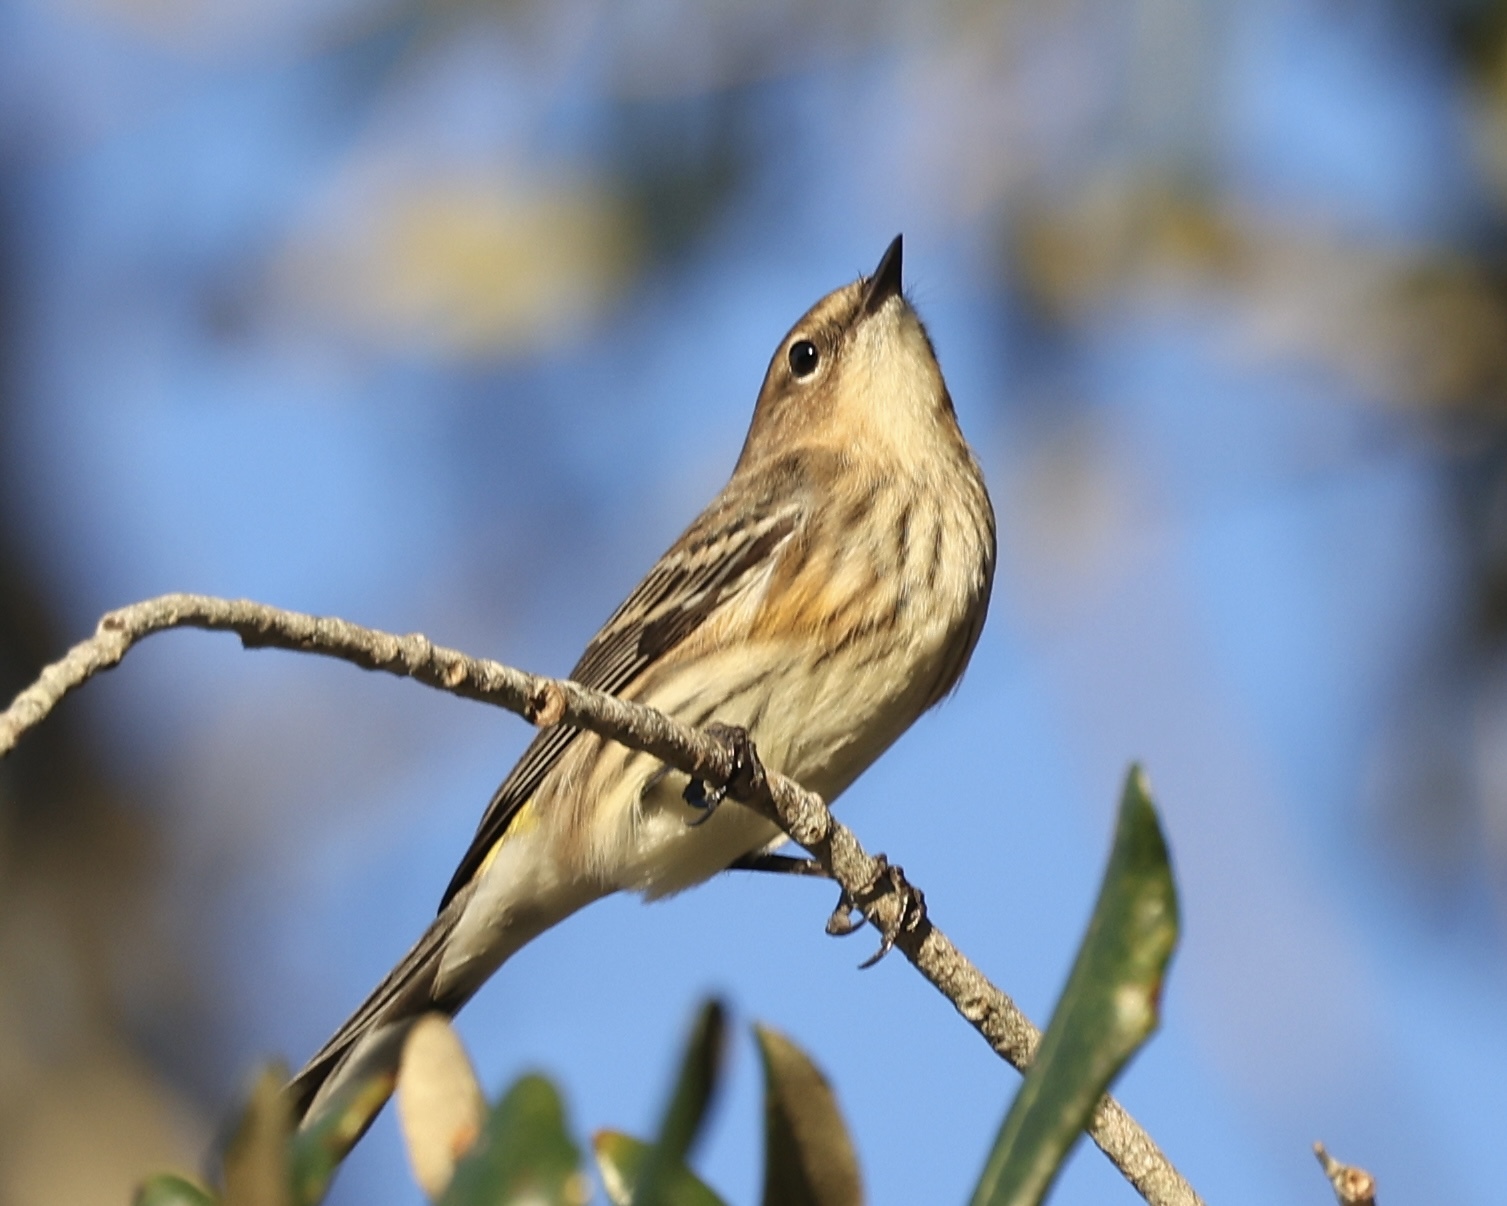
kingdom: Animalia
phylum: Chordata
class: Aves
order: Passeriformes
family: Parulidae
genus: Setophaga
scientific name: Setophaga coronata
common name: Myrtle warbler
